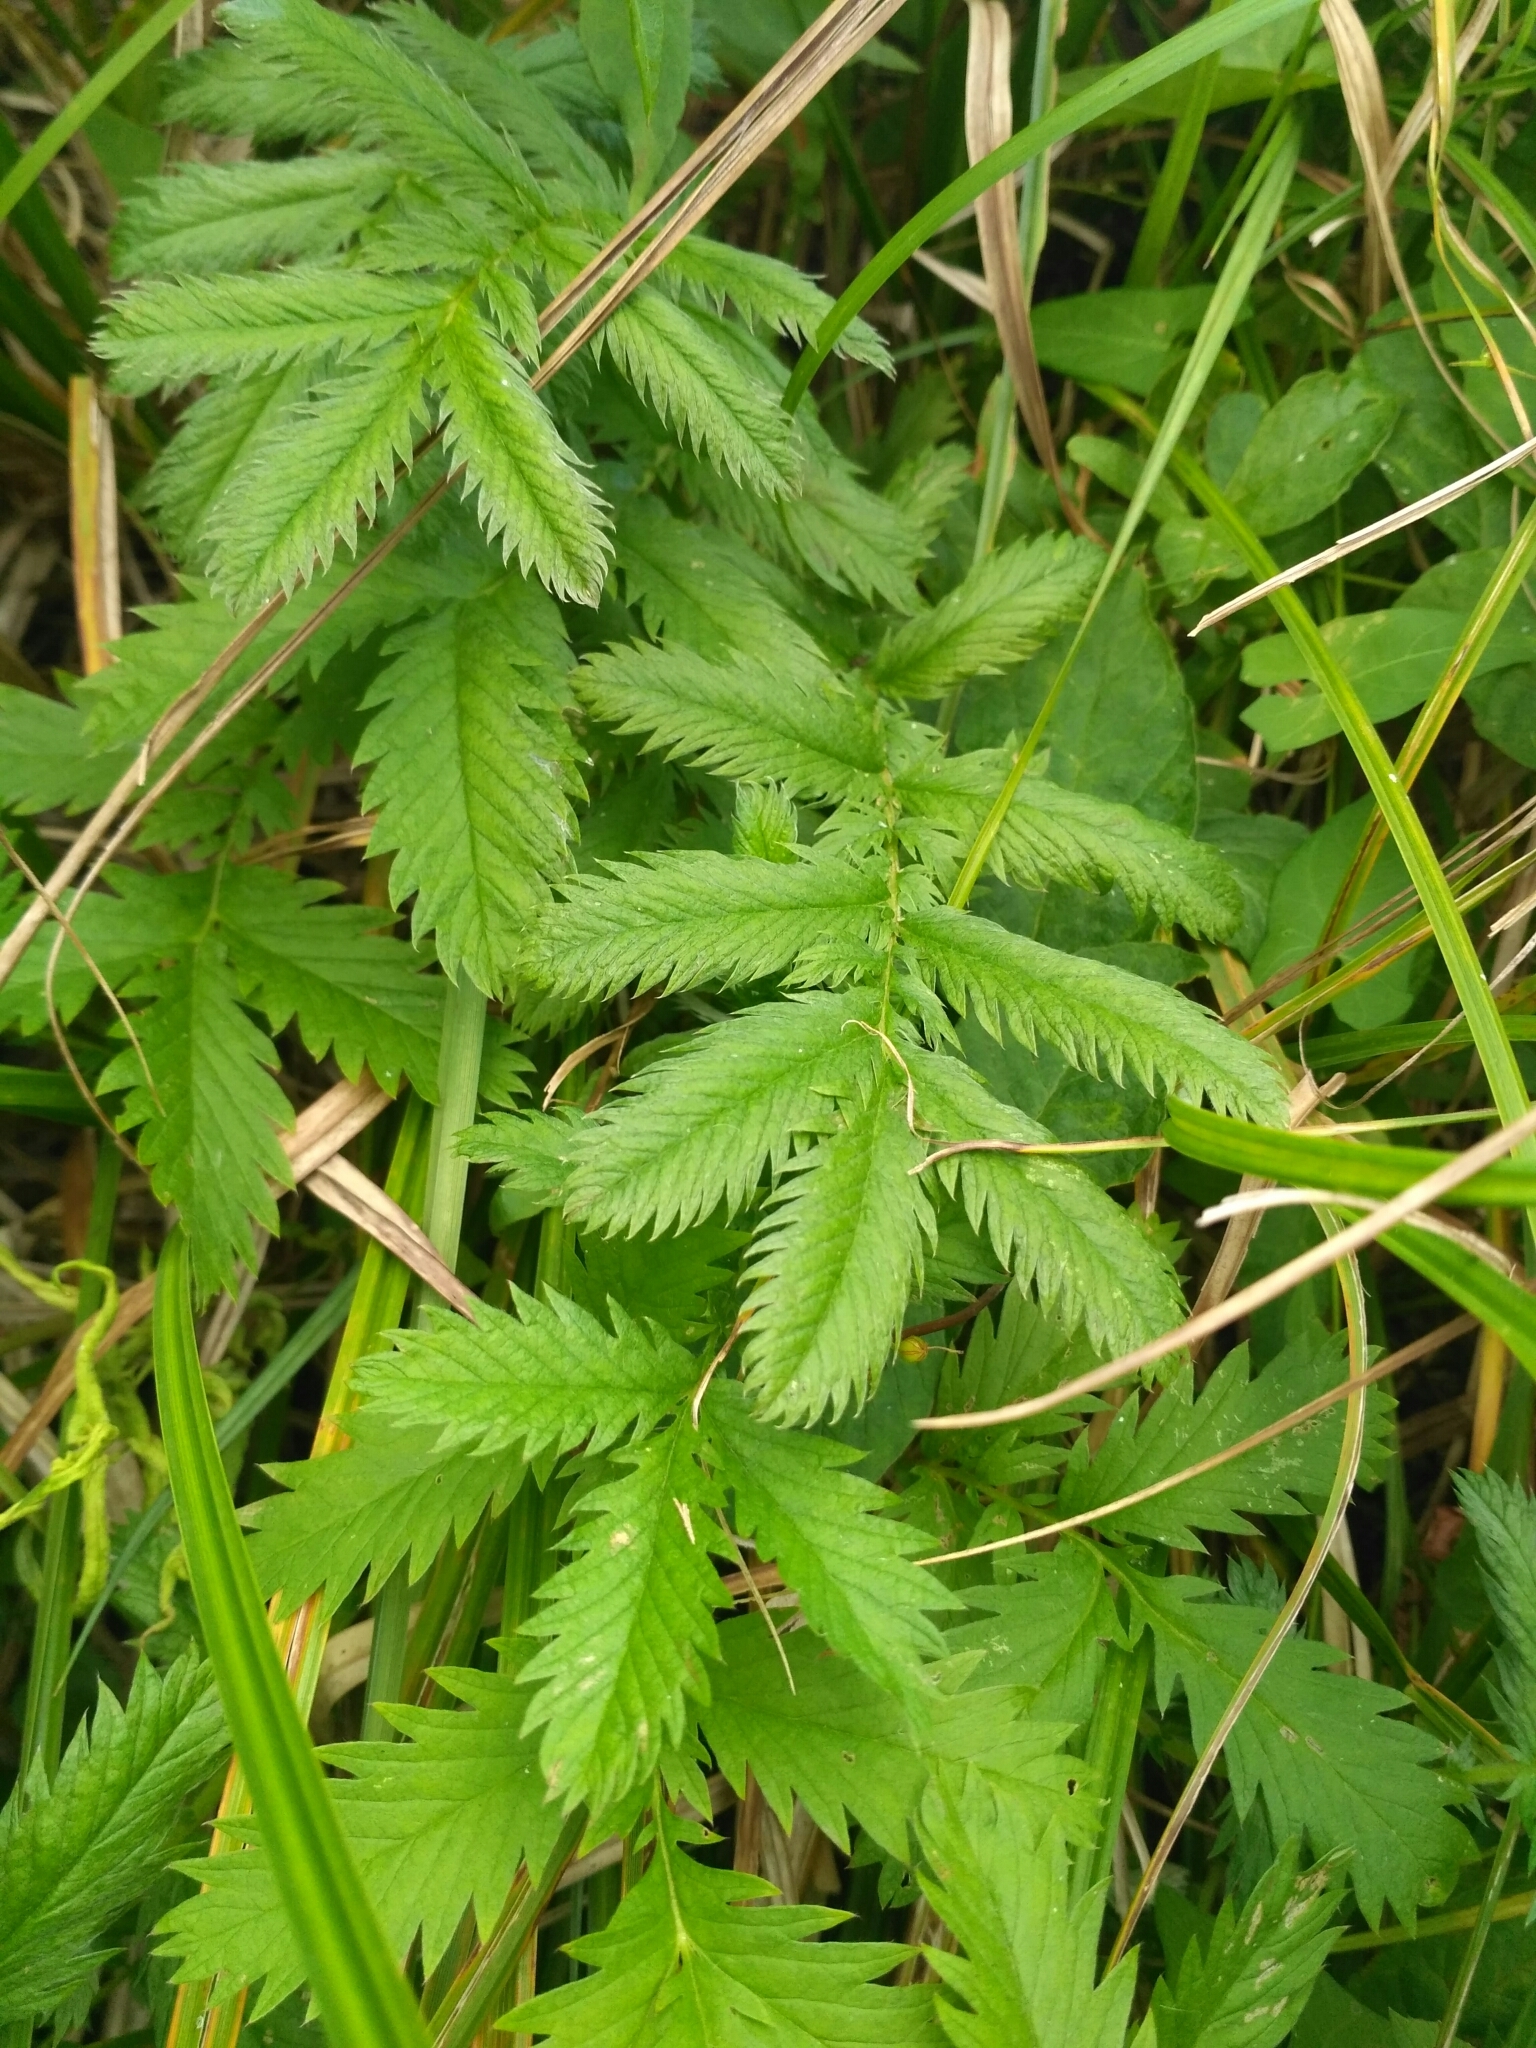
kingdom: Plantae
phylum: Tracheophyta
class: Magnoliopsida
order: Rosales
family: Rosaceae
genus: Argentina
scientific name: Argentina anserina
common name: Common silverweed
